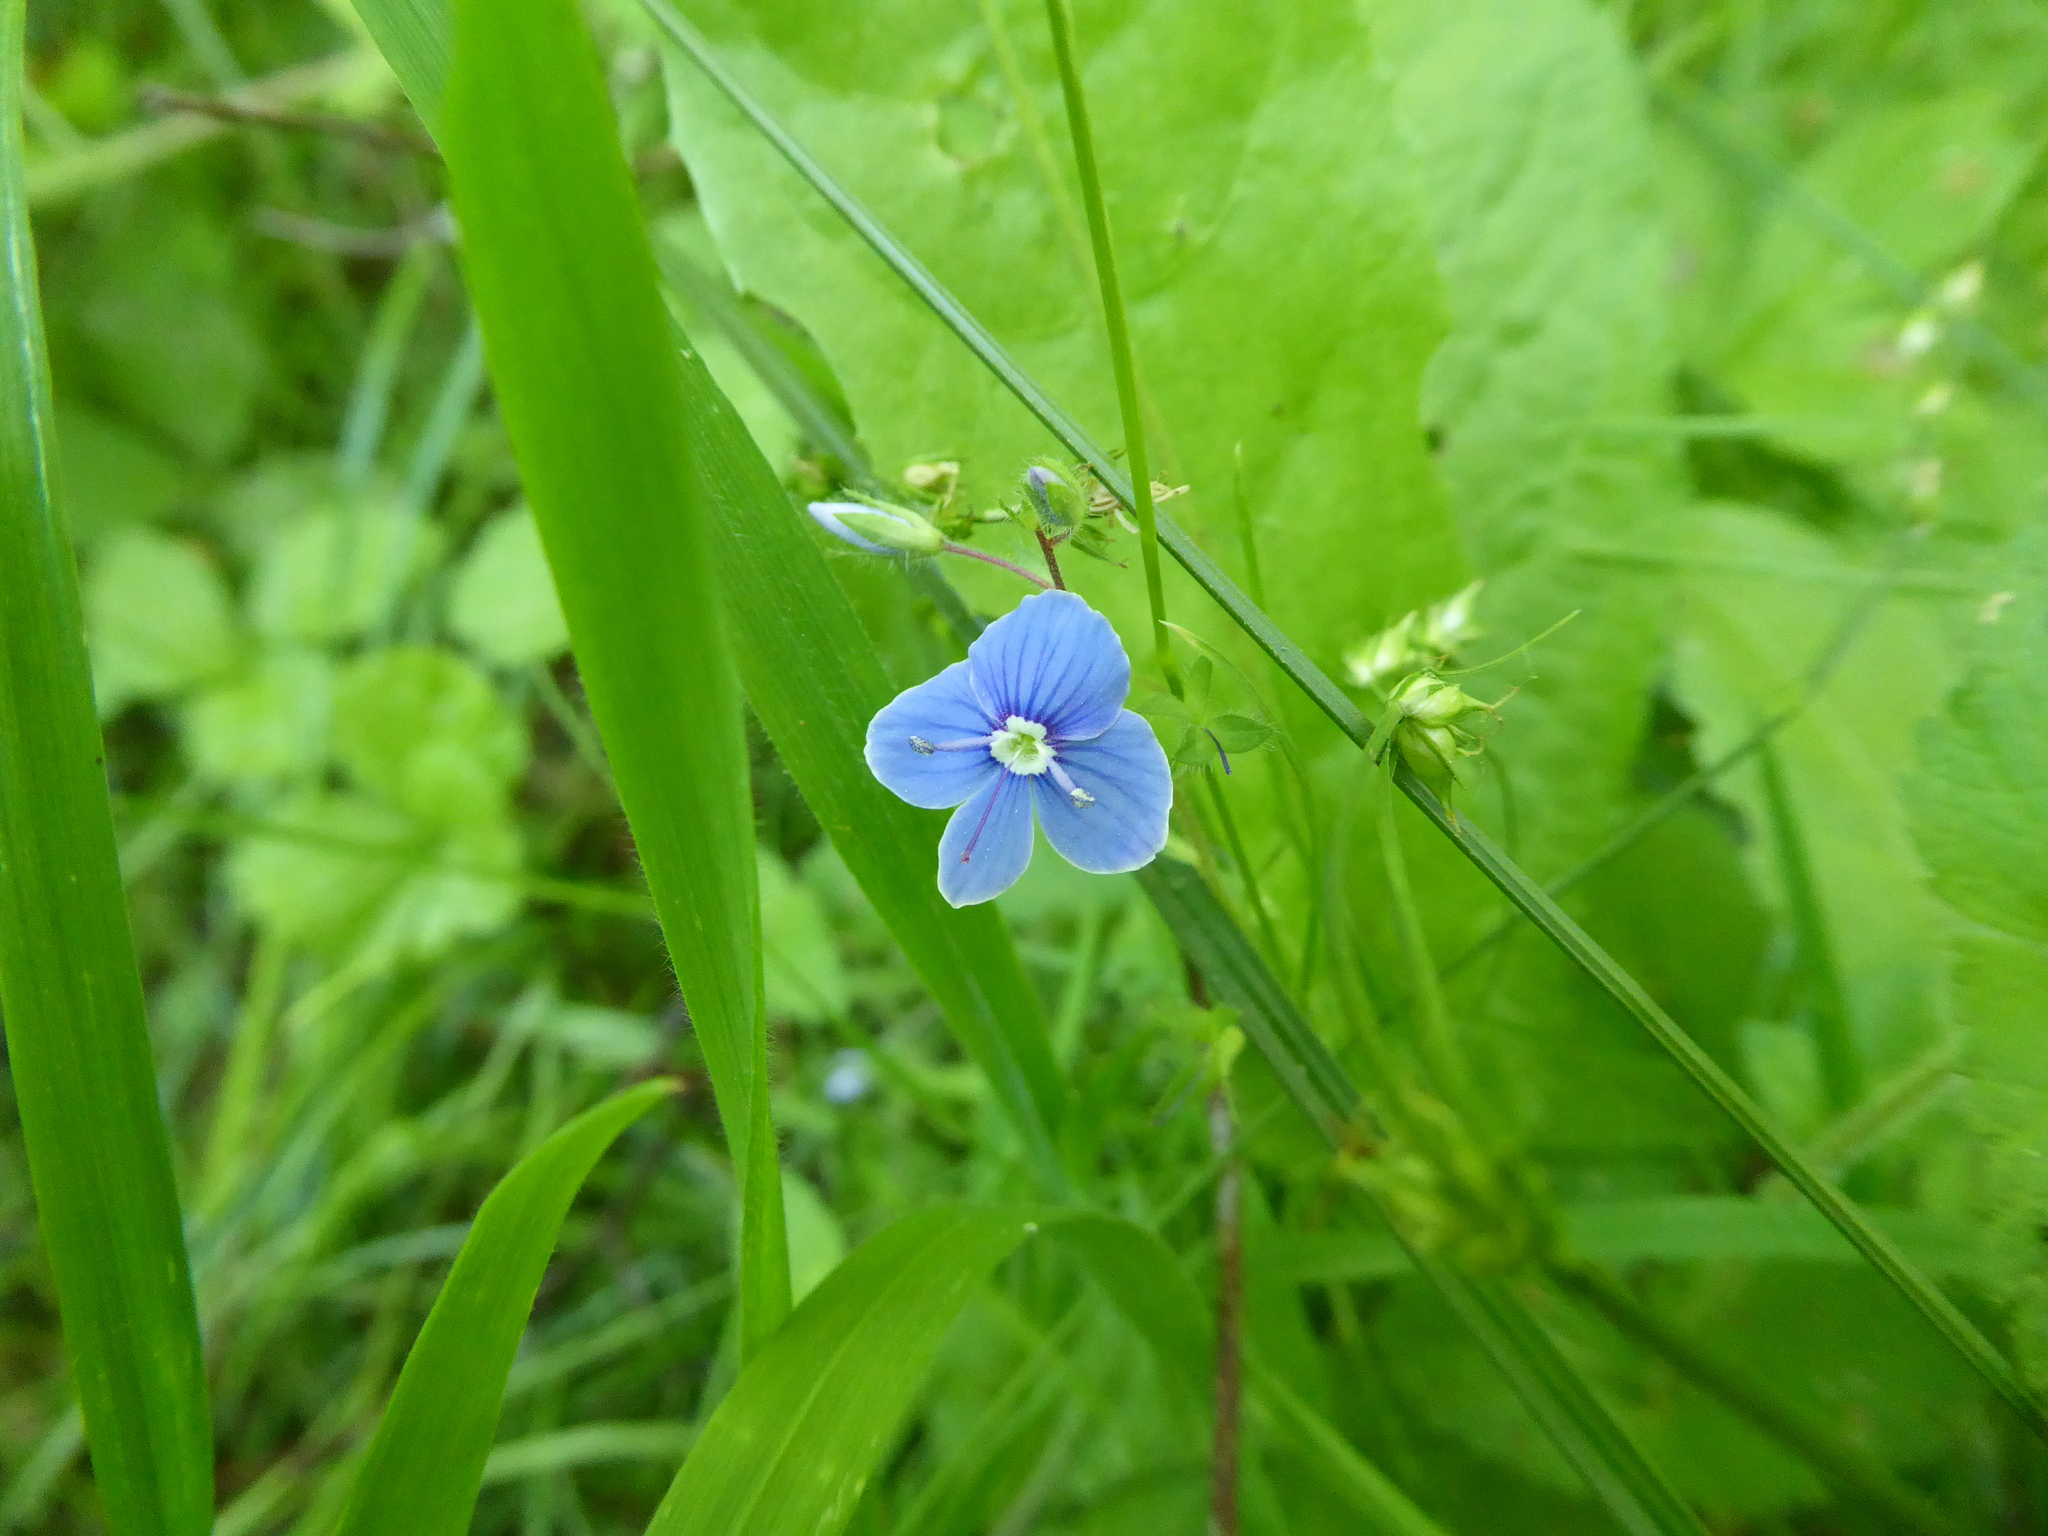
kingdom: Plantae
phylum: Tracheophyta
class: Magnoliopsida
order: Lamiales
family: Plantaginaceae
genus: Veronica
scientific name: Veronica chamaedrys
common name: Germander speedwell
